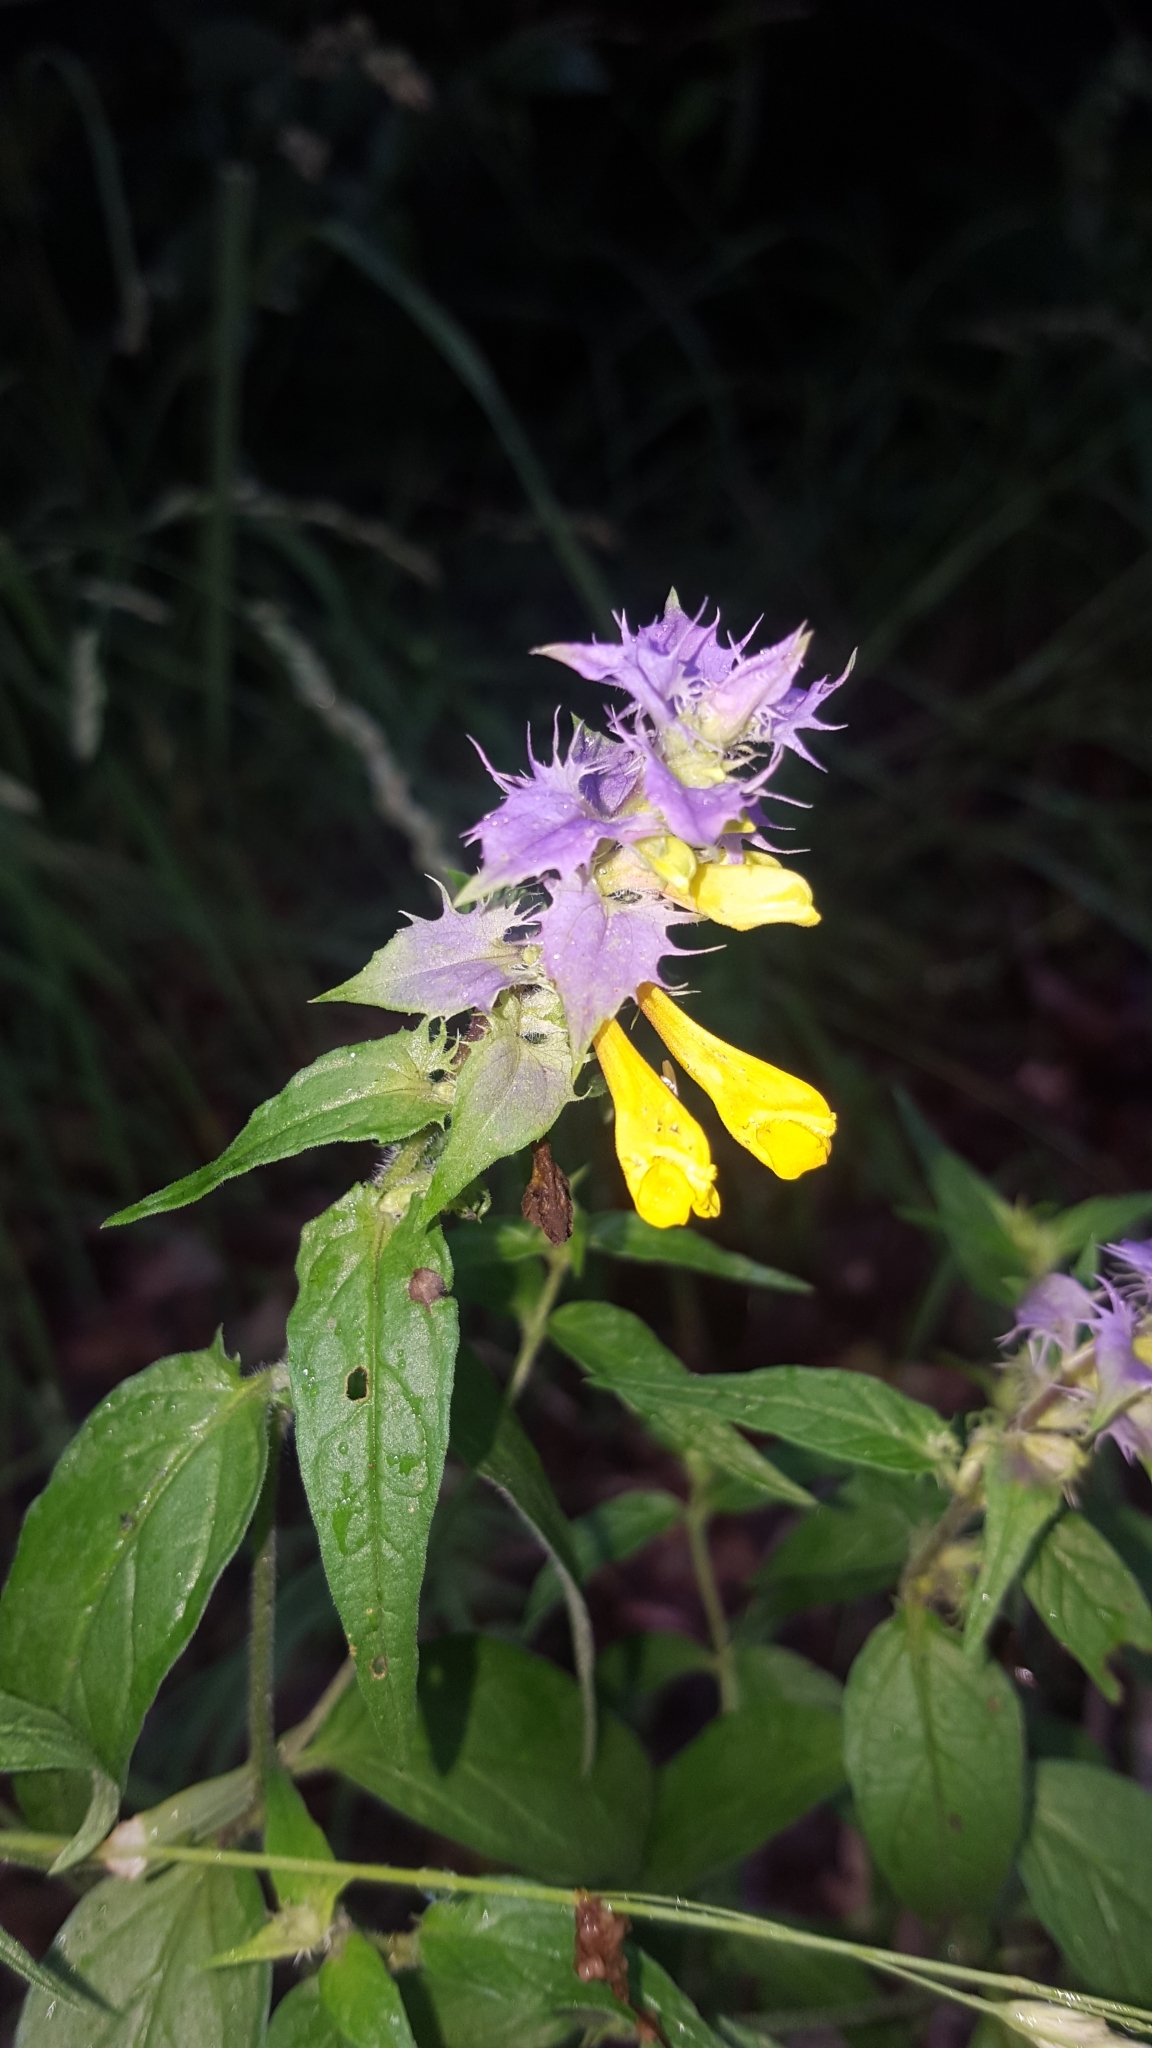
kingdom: Plantae
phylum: Tracheophyta
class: Magnoliopsida
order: Lamiales
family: Orobanchaceae
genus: Melampyrum
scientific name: Melampyrum nemorosum
